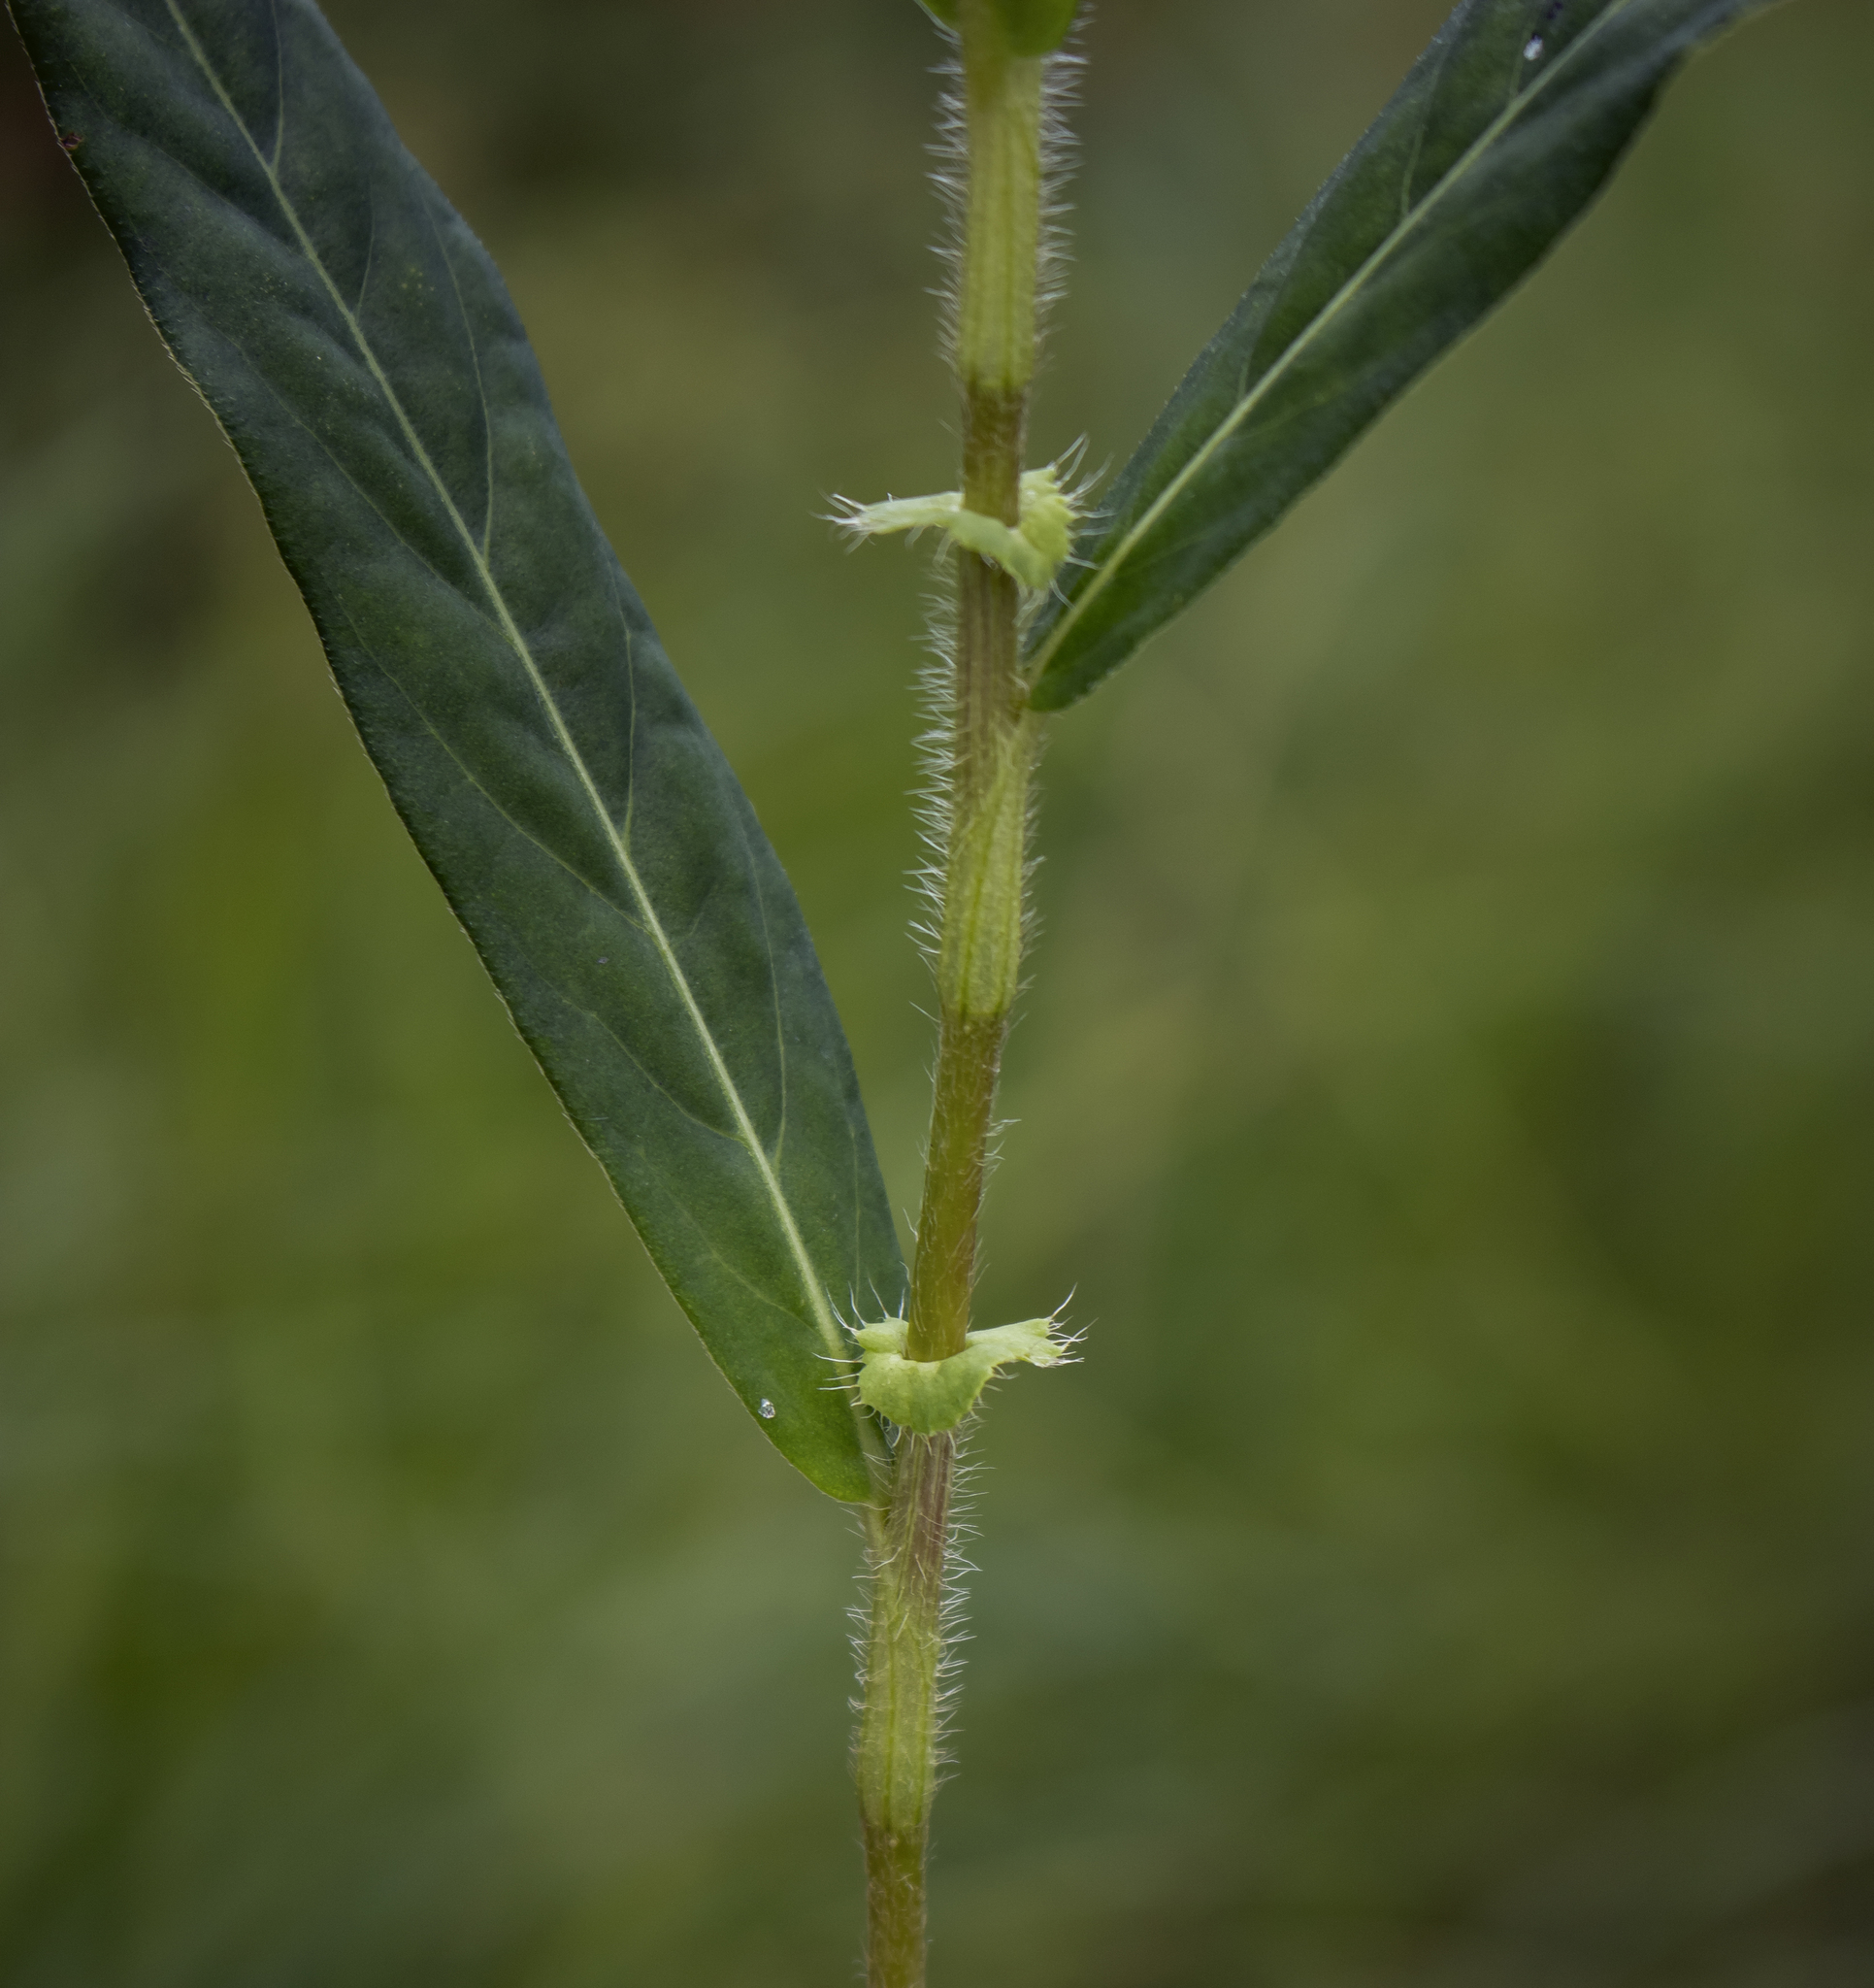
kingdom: Plantae
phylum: Tracheophyta
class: Magnoliopsida
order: Caryophyllales
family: Polygonaceae
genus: Persicaria
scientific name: Persicaria amphibia
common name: Amphibious bistort
